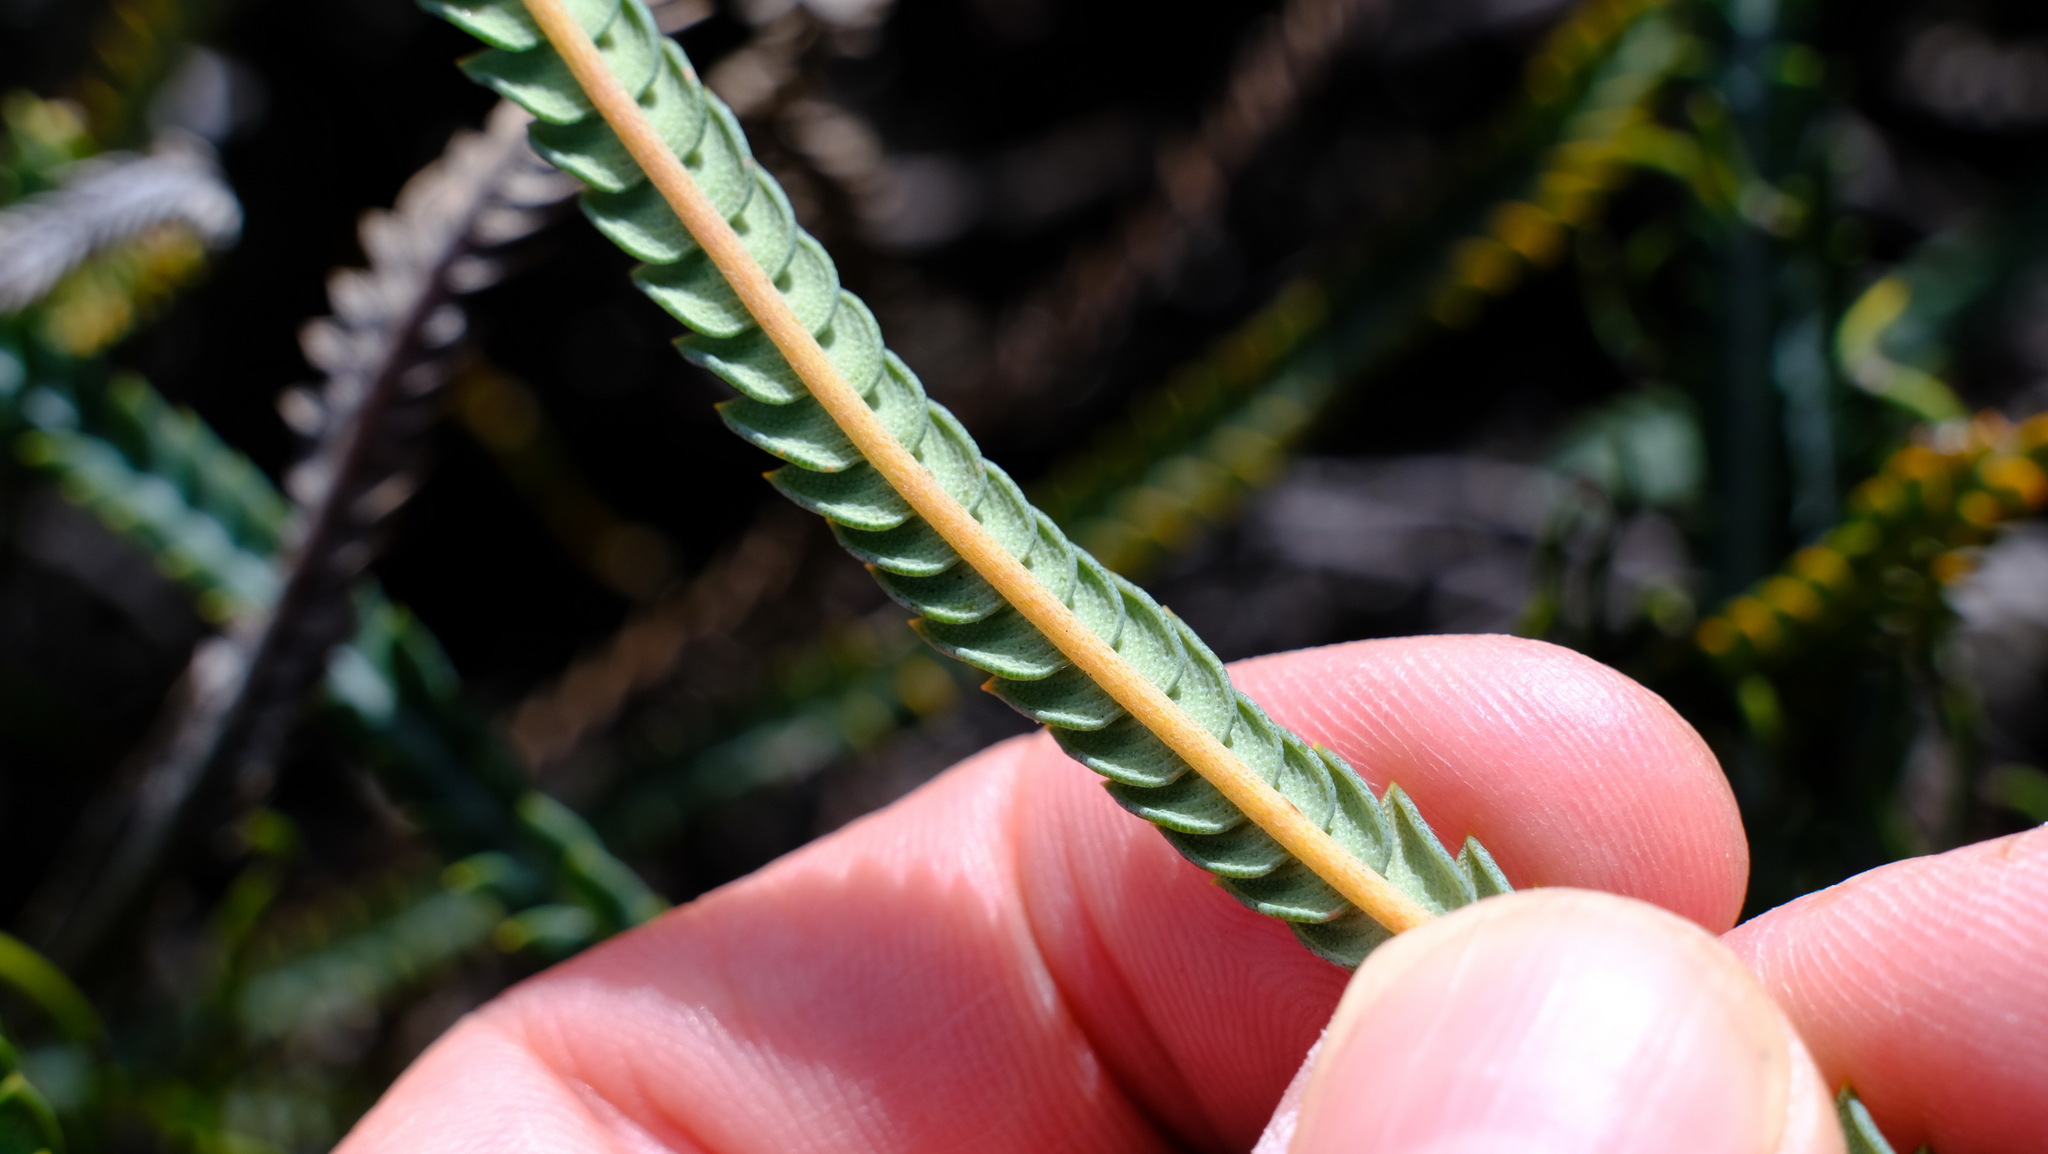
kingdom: Plantae
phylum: Tracheophyta
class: Magnoliopsida
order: Proteales
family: Proteaceae
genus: Banksia
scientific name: Banksia dallanneyi
